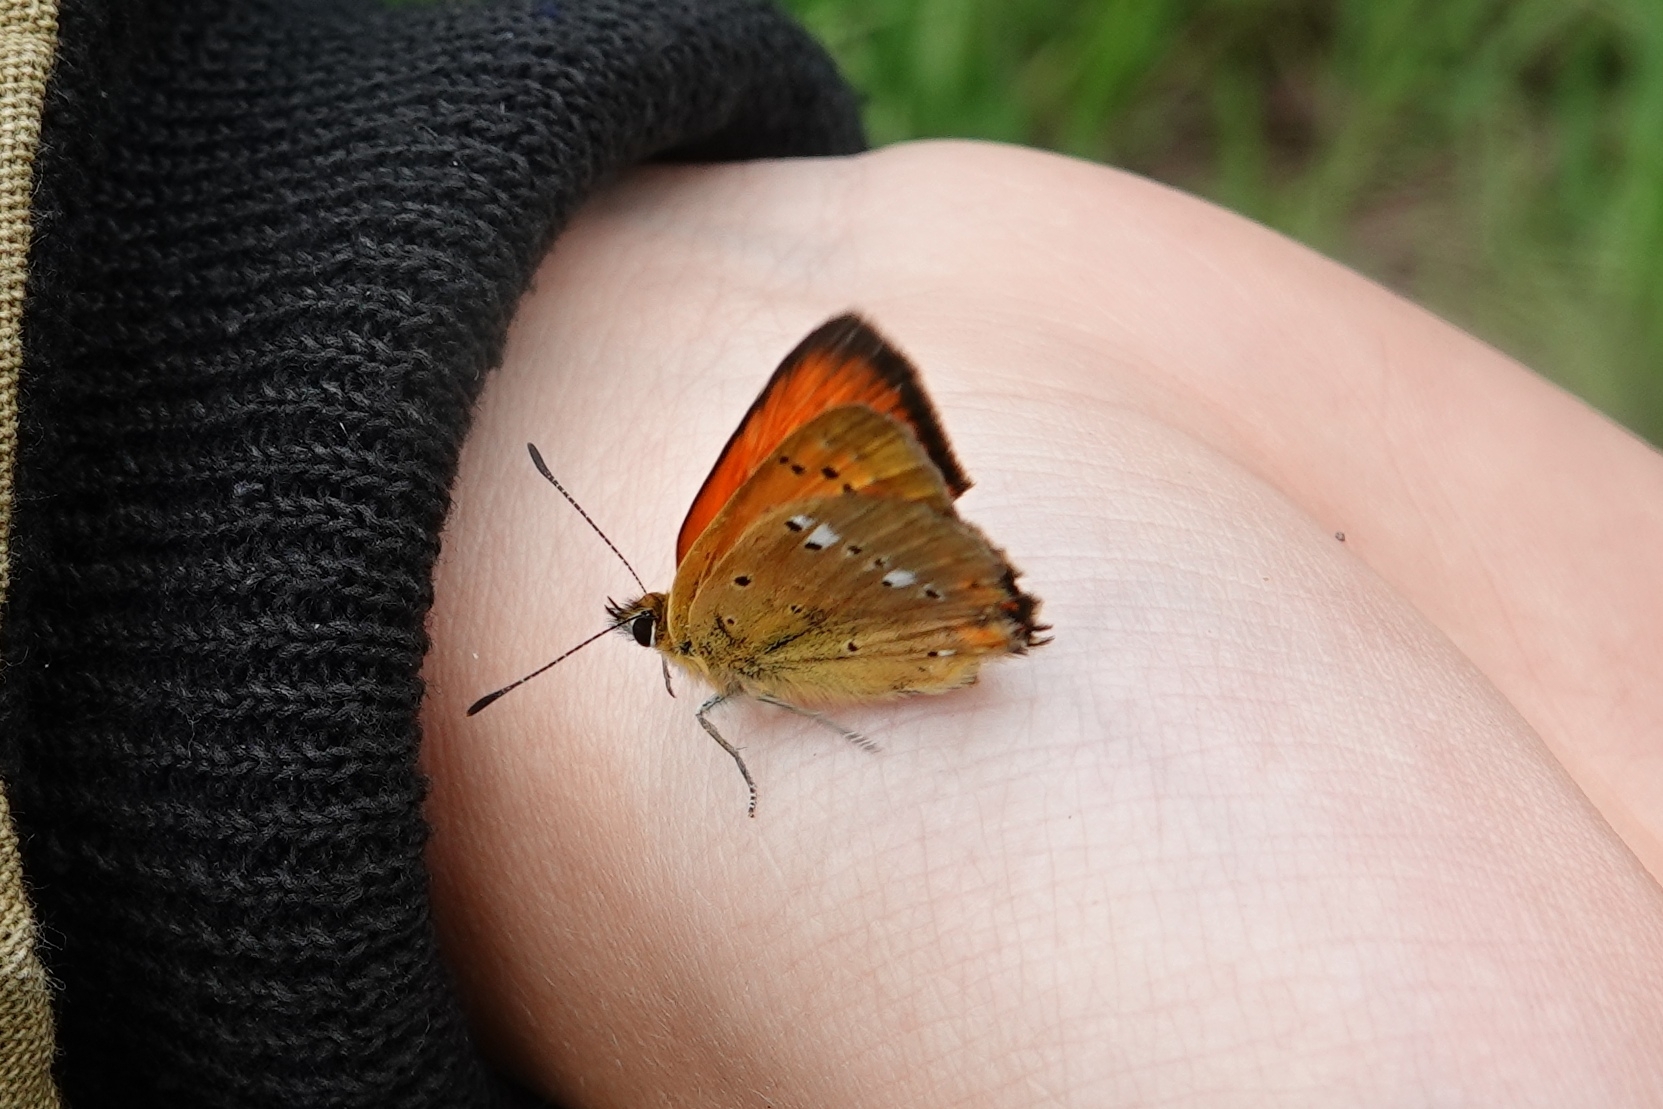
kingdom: Animalia
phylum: Arthropoda
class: Insecta
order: Lepidoptera
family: Lycaenidae
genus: Lycaena
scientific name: Lycaena virgaureae
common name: Scarce copper
